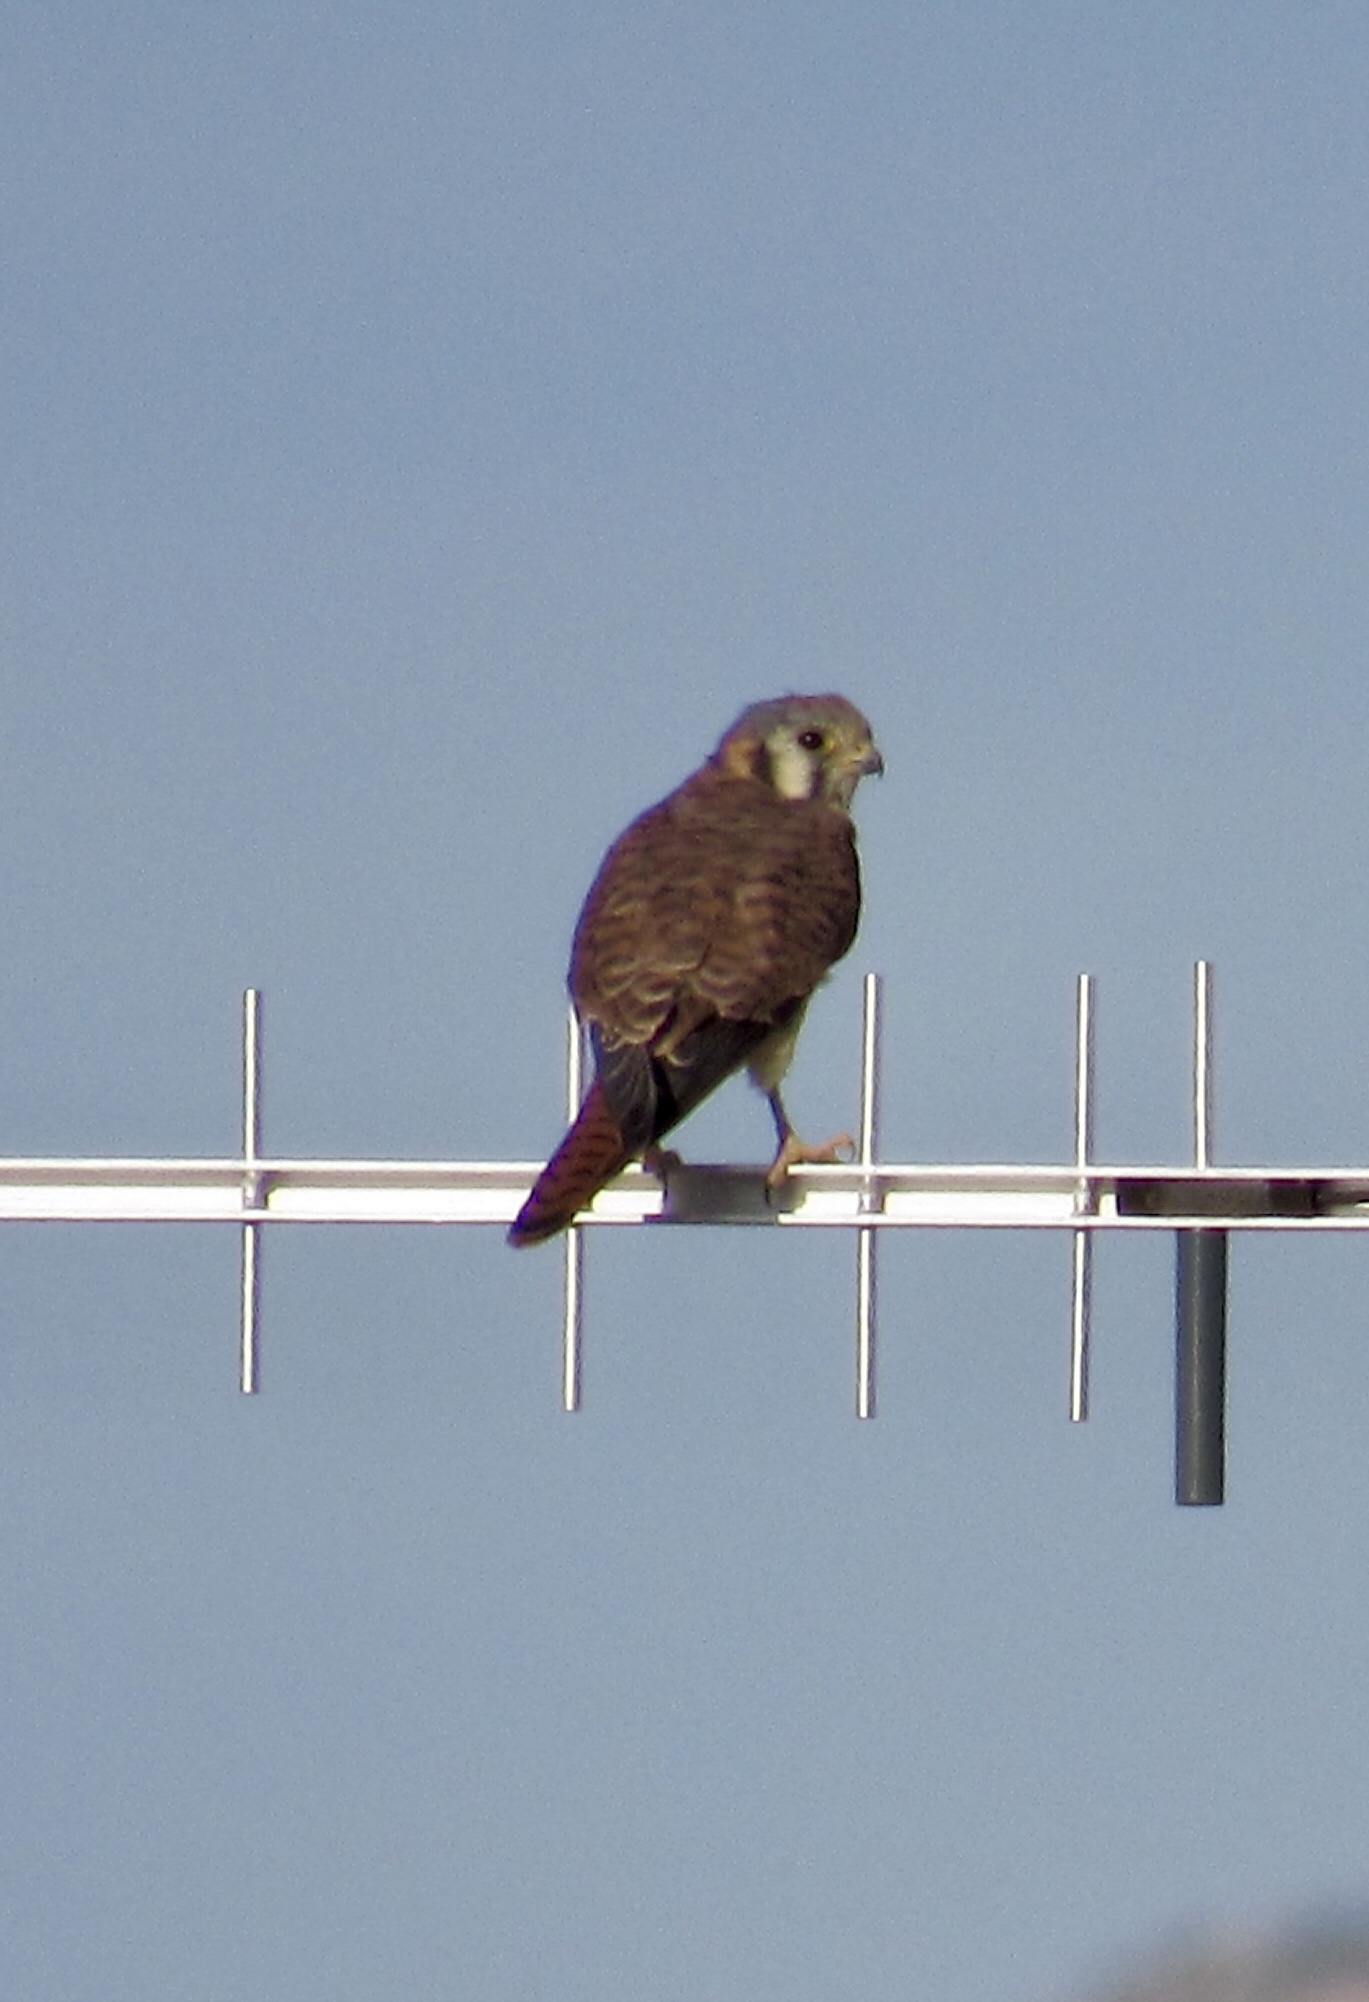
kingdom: Animalia
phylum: Chordata
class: Aves
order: Falconiformes
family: Falconidae
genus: Falco
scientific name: Falco sparverius
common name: American kestrel
